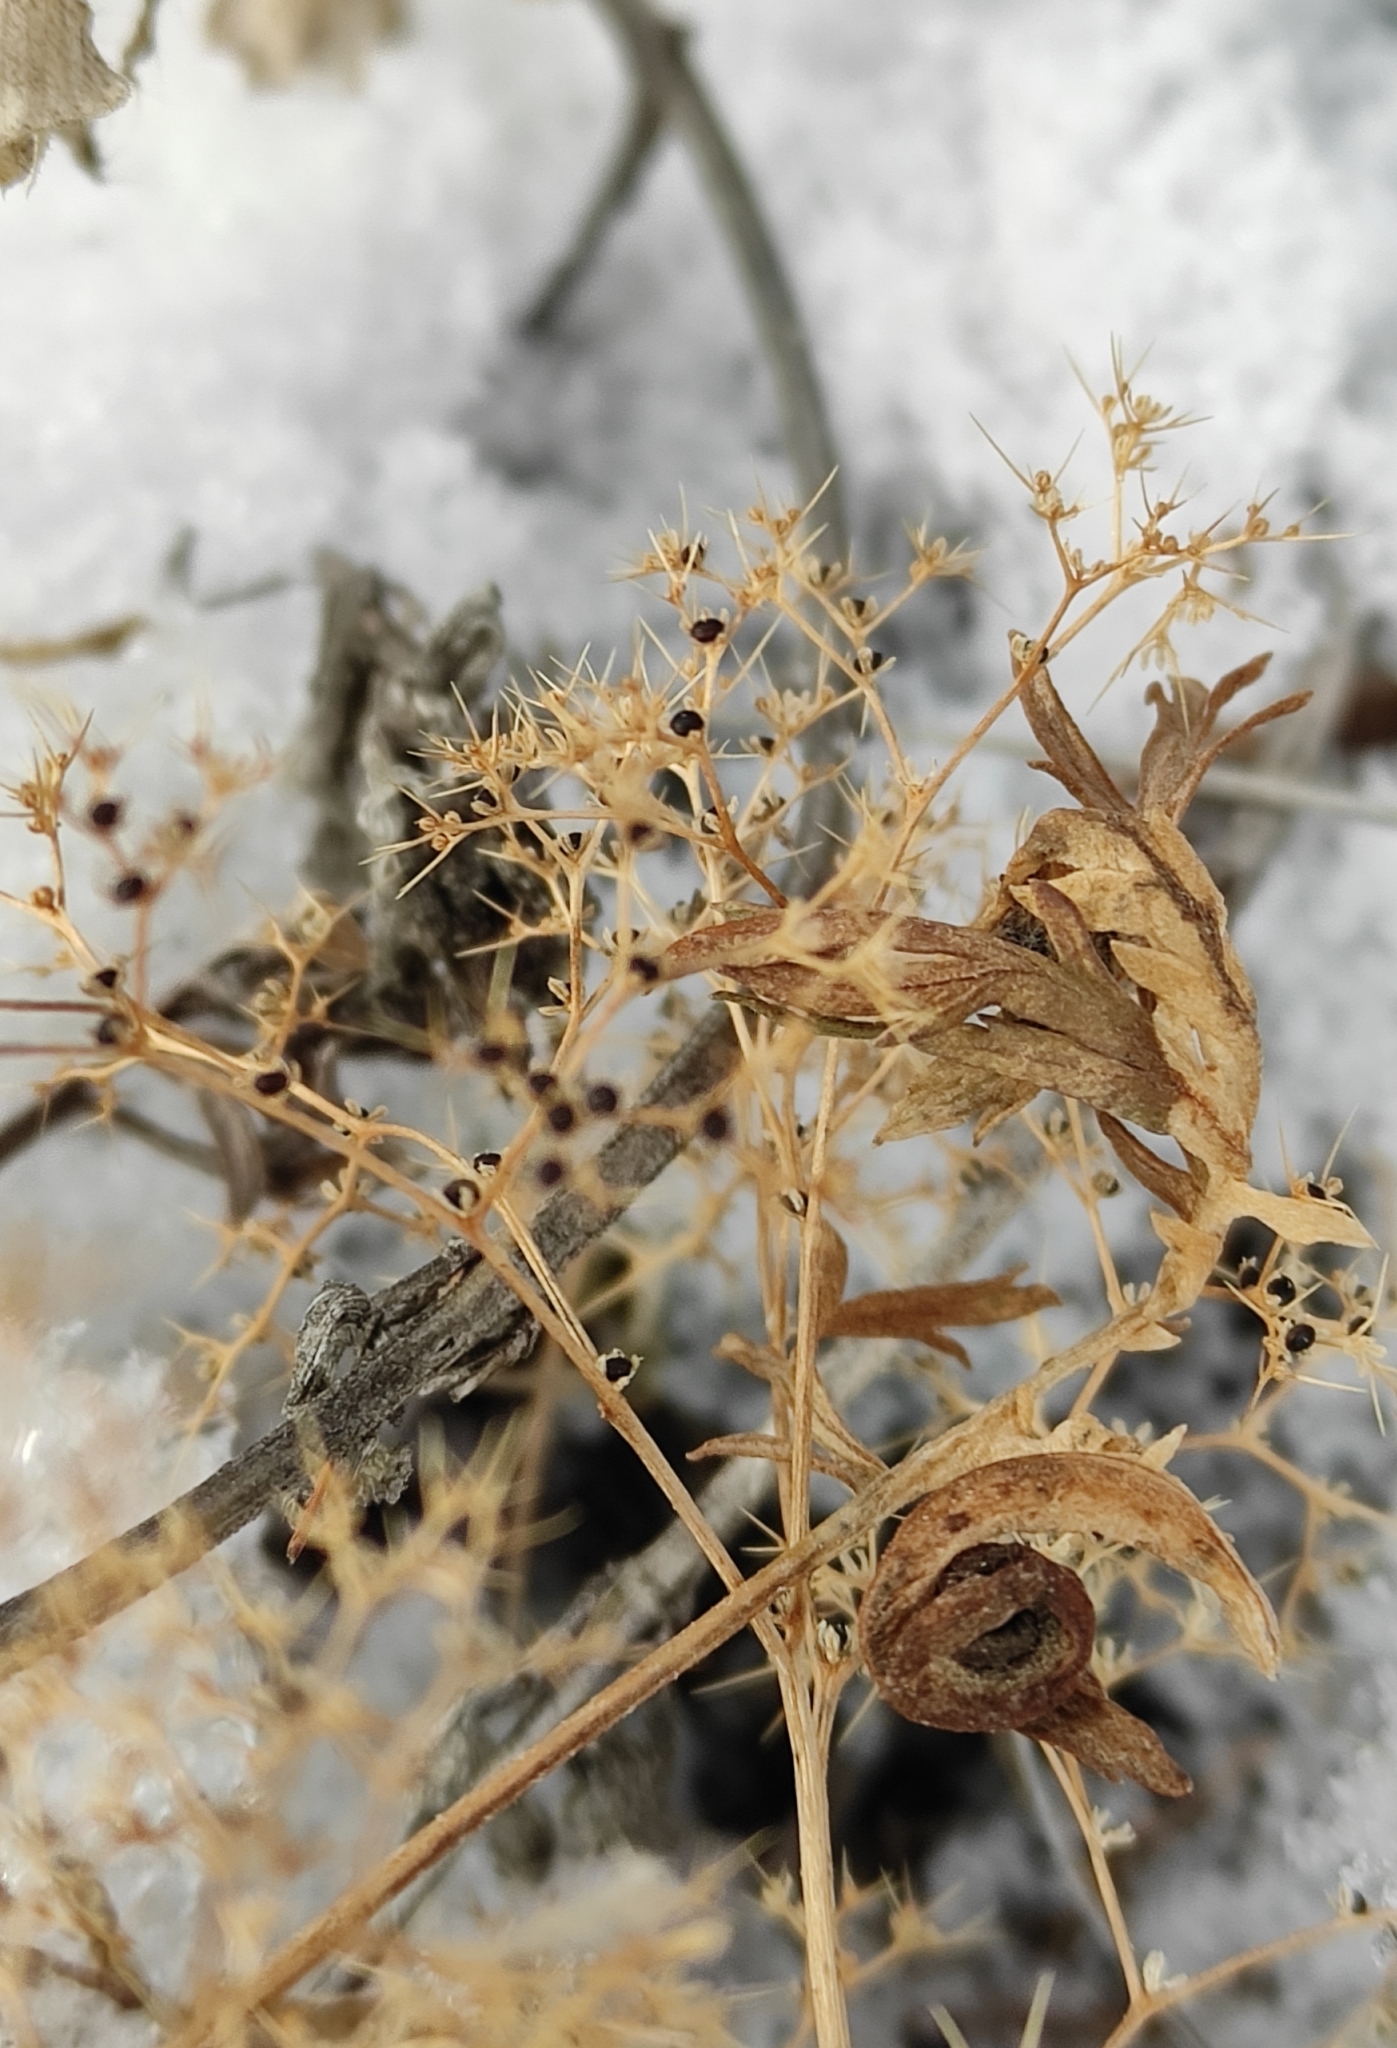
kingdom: Plantae
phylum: Tracheophyta
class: Magnoliopsida
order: Caryophyllales
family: Amaranthaceae
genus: Teloxys
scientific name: Teloxys aristata
